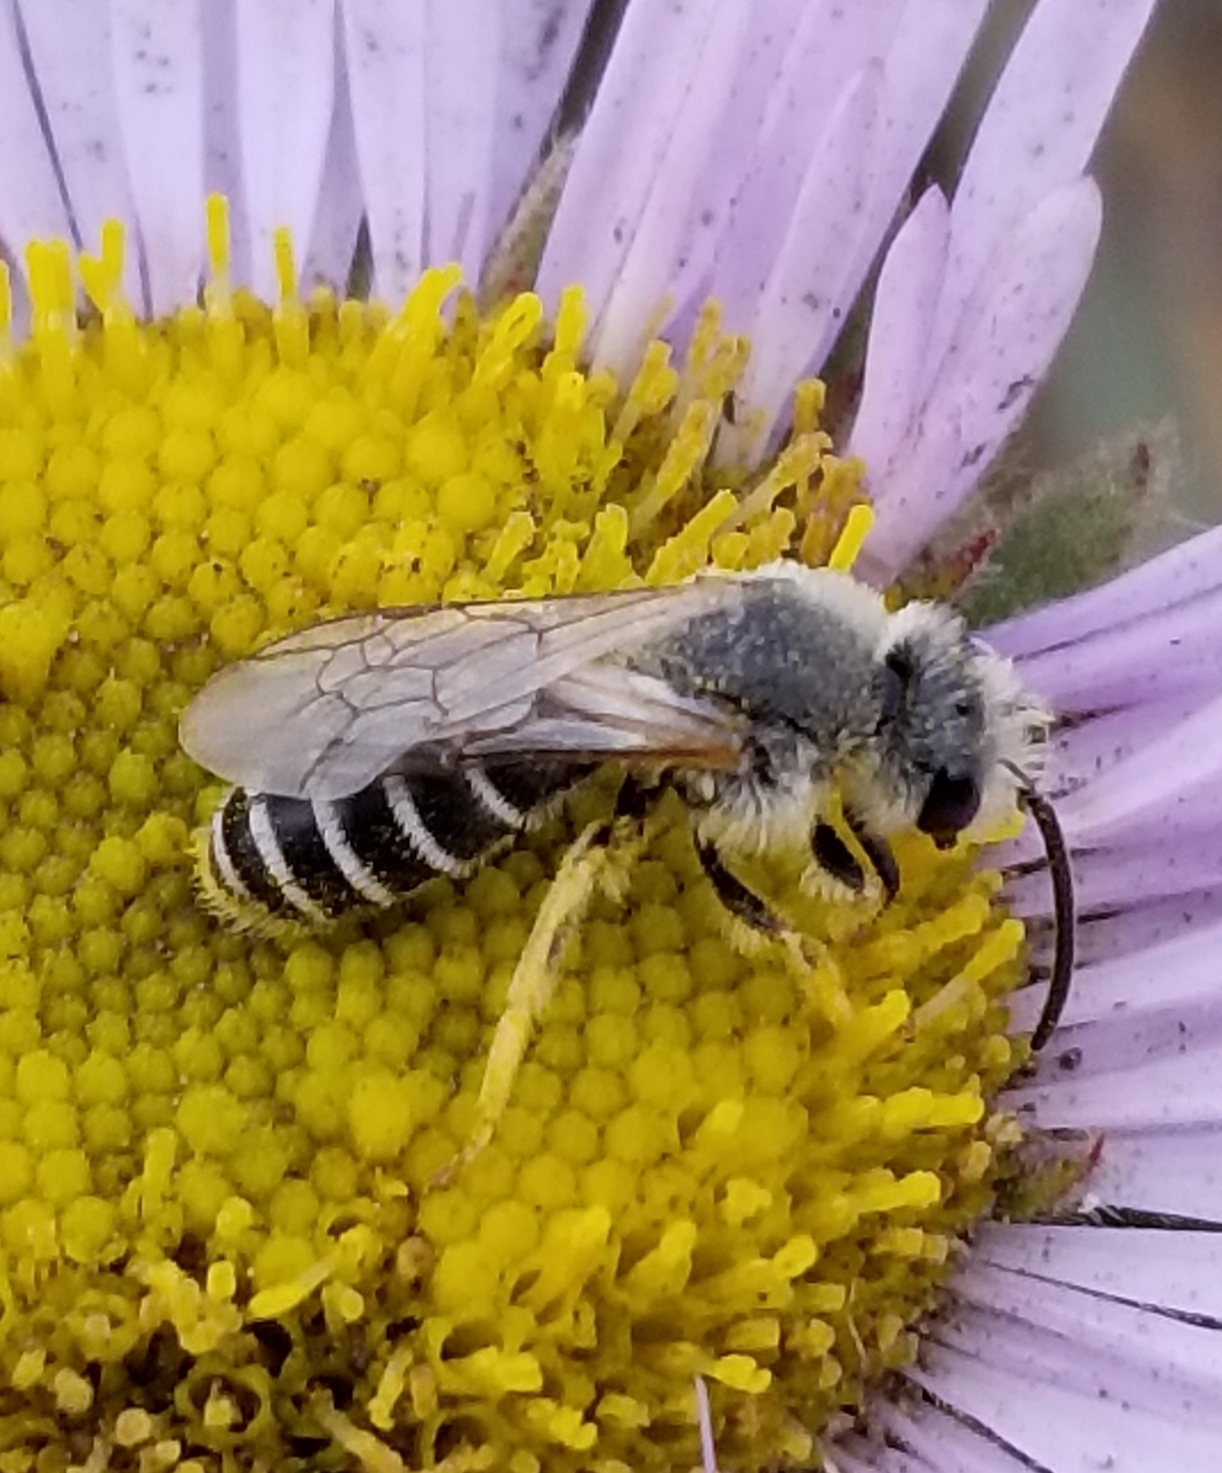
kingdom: Animalia
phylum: Arthropoda
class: Insecta
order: Hymenoptera
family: Halictidae
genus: Halictus
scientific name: Halictus rubicundus
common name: Orange-legged furrow bee
